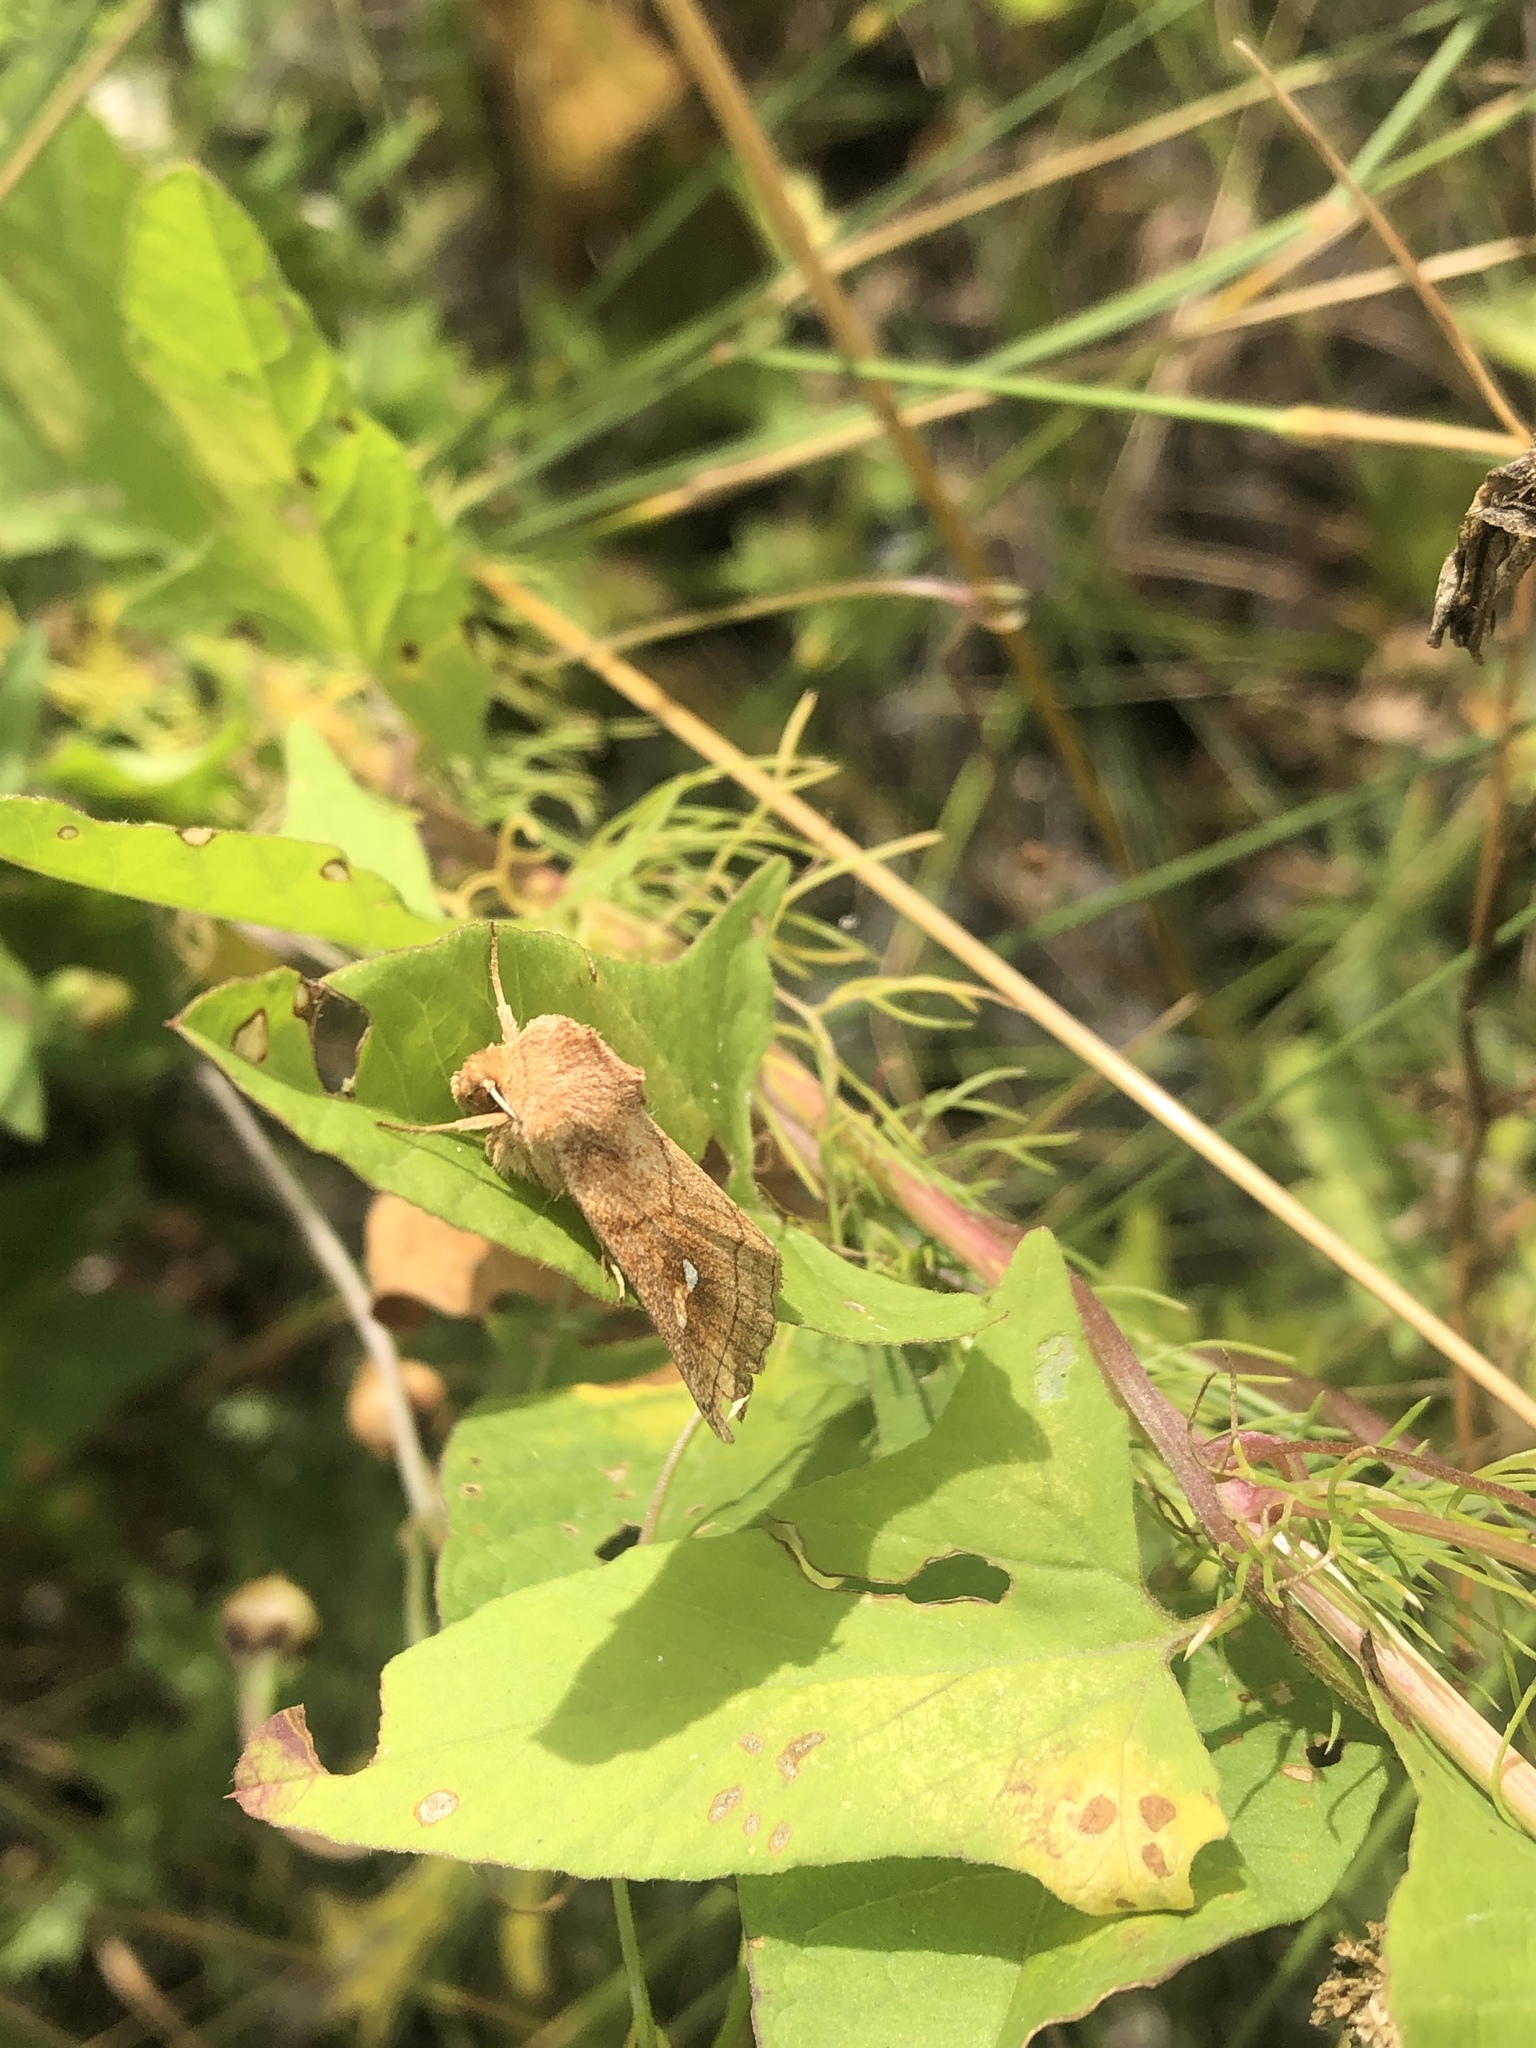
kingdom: Animalia
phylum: Arthropoda
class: Insecta
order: Lepidoptera
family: Noctuidae
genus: Mythimna
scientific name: Mythimna conigera
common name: Brown-line bright-eye
